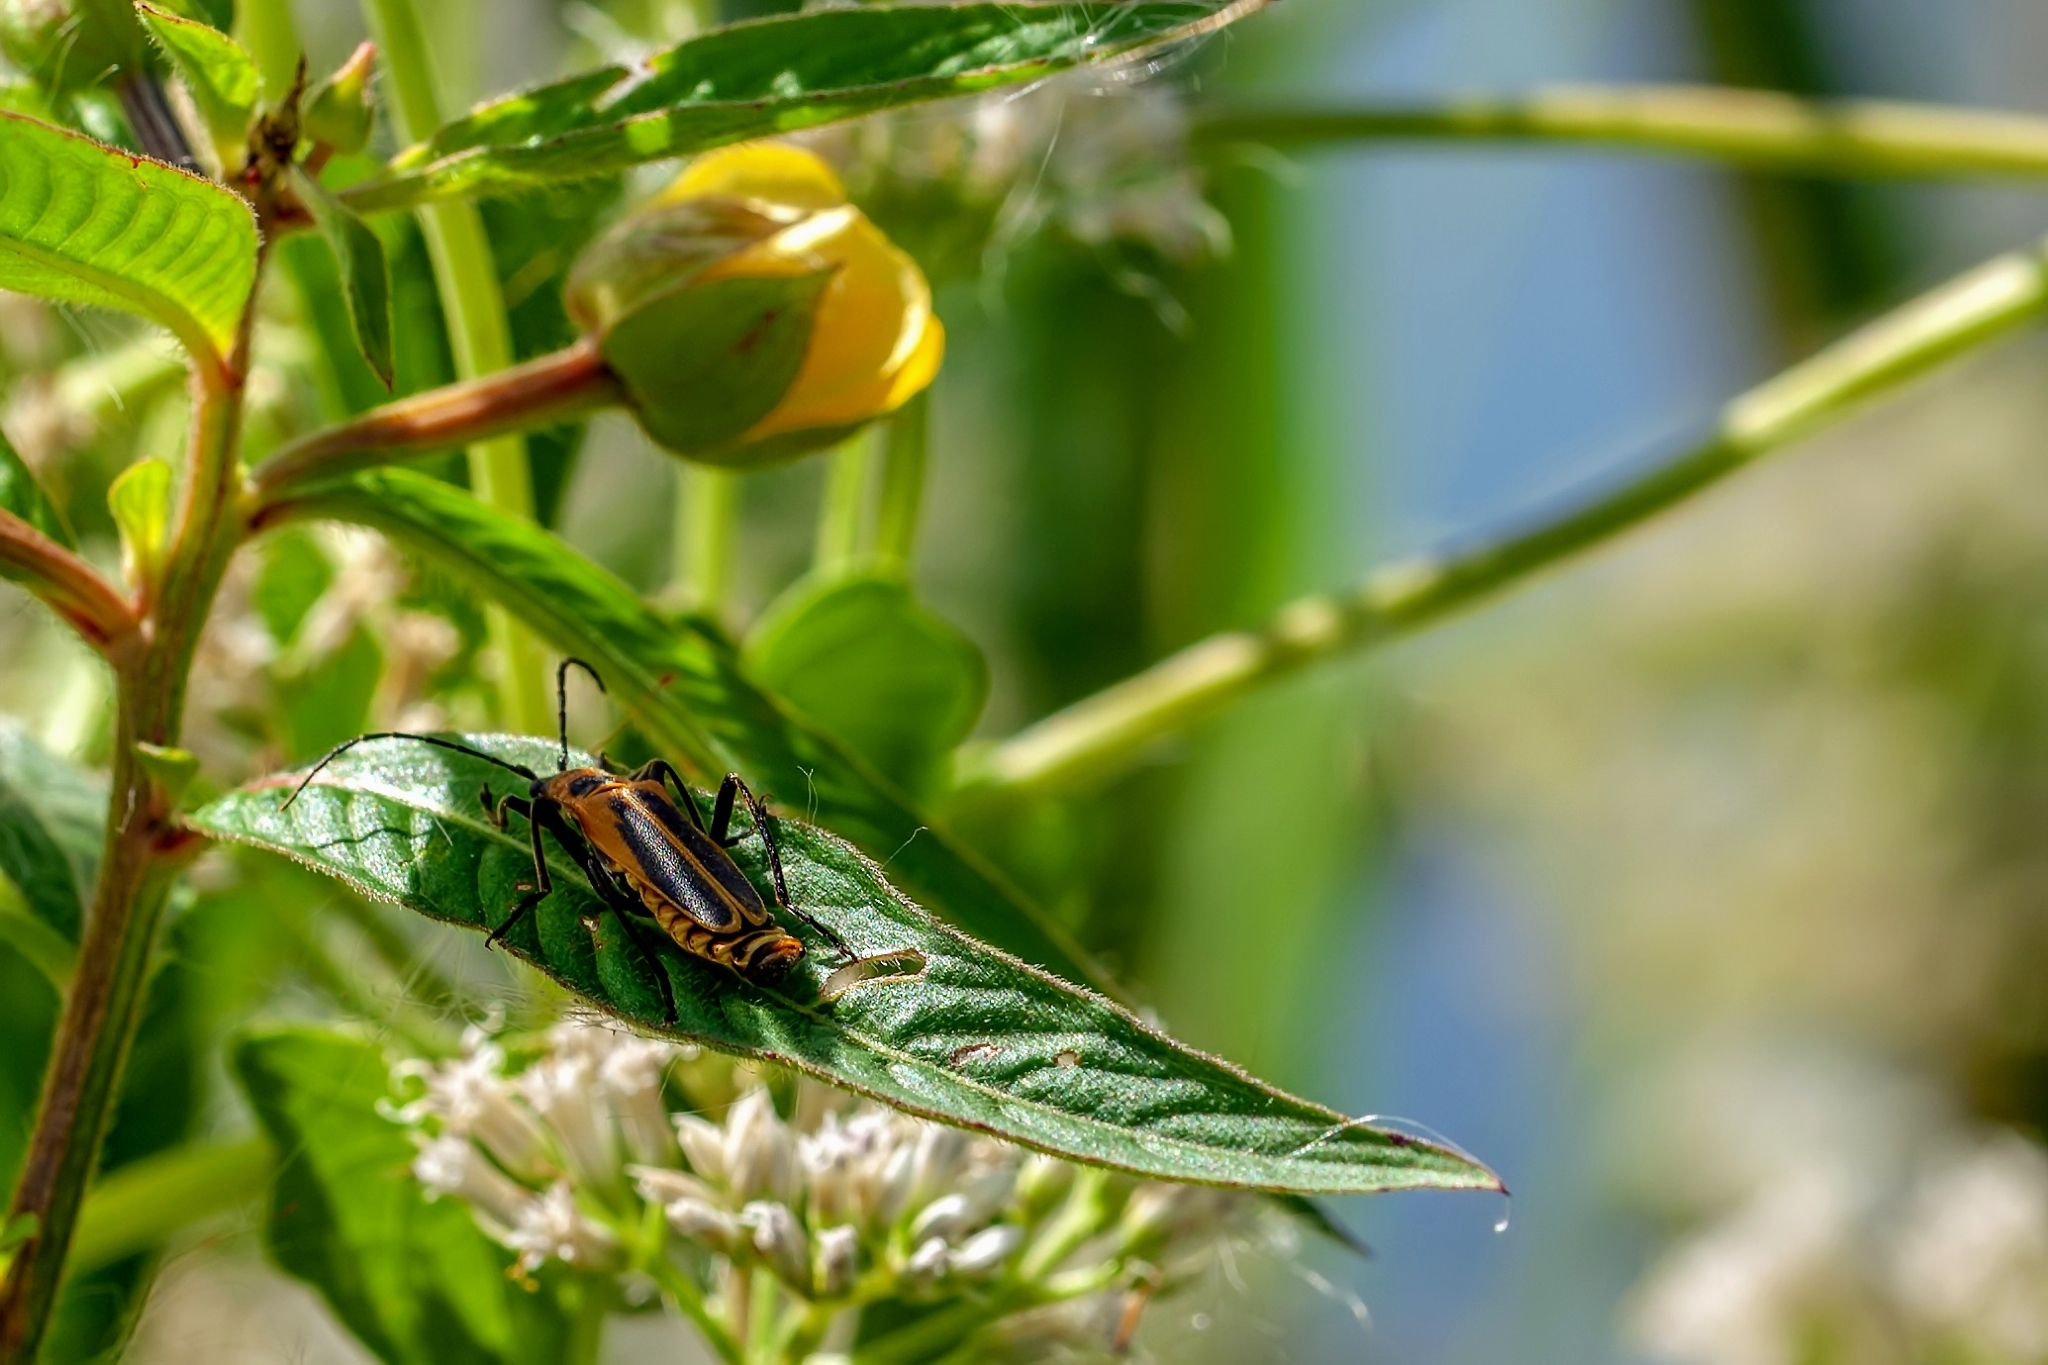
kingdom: Animalia
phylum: Arthropoda
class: Insecta
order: Coleoptera
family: Cantharidae
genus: Chauliognathus
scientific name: Chauliognathus pensylvanicus
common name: Goldenrod soldier beetle
